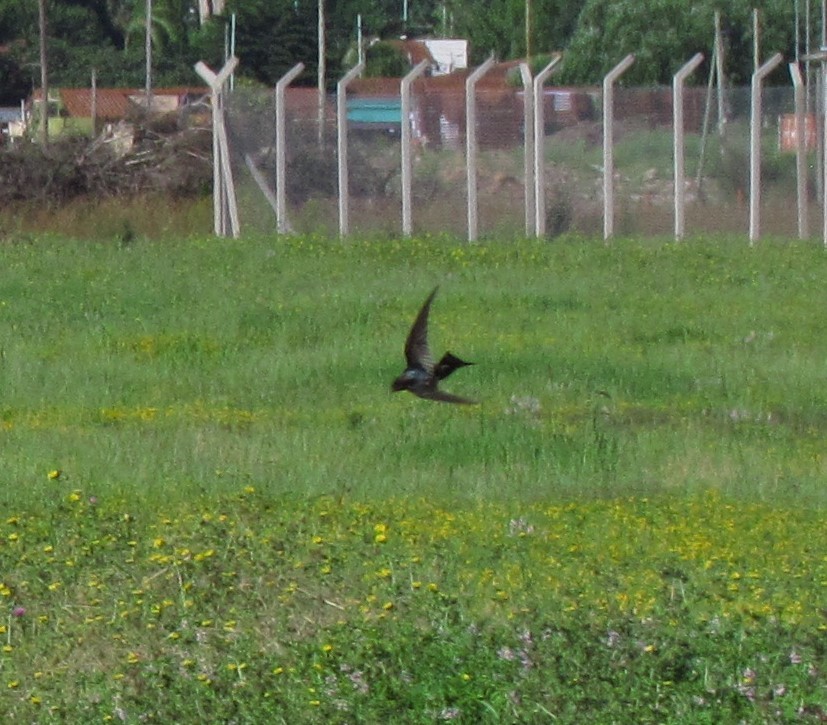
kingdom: Animalia
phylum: Chordata
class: Aves
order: Passeriformes
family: Hirundinidae
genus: Hirundo
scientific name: Hirundo rustica
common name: Barn swallow
